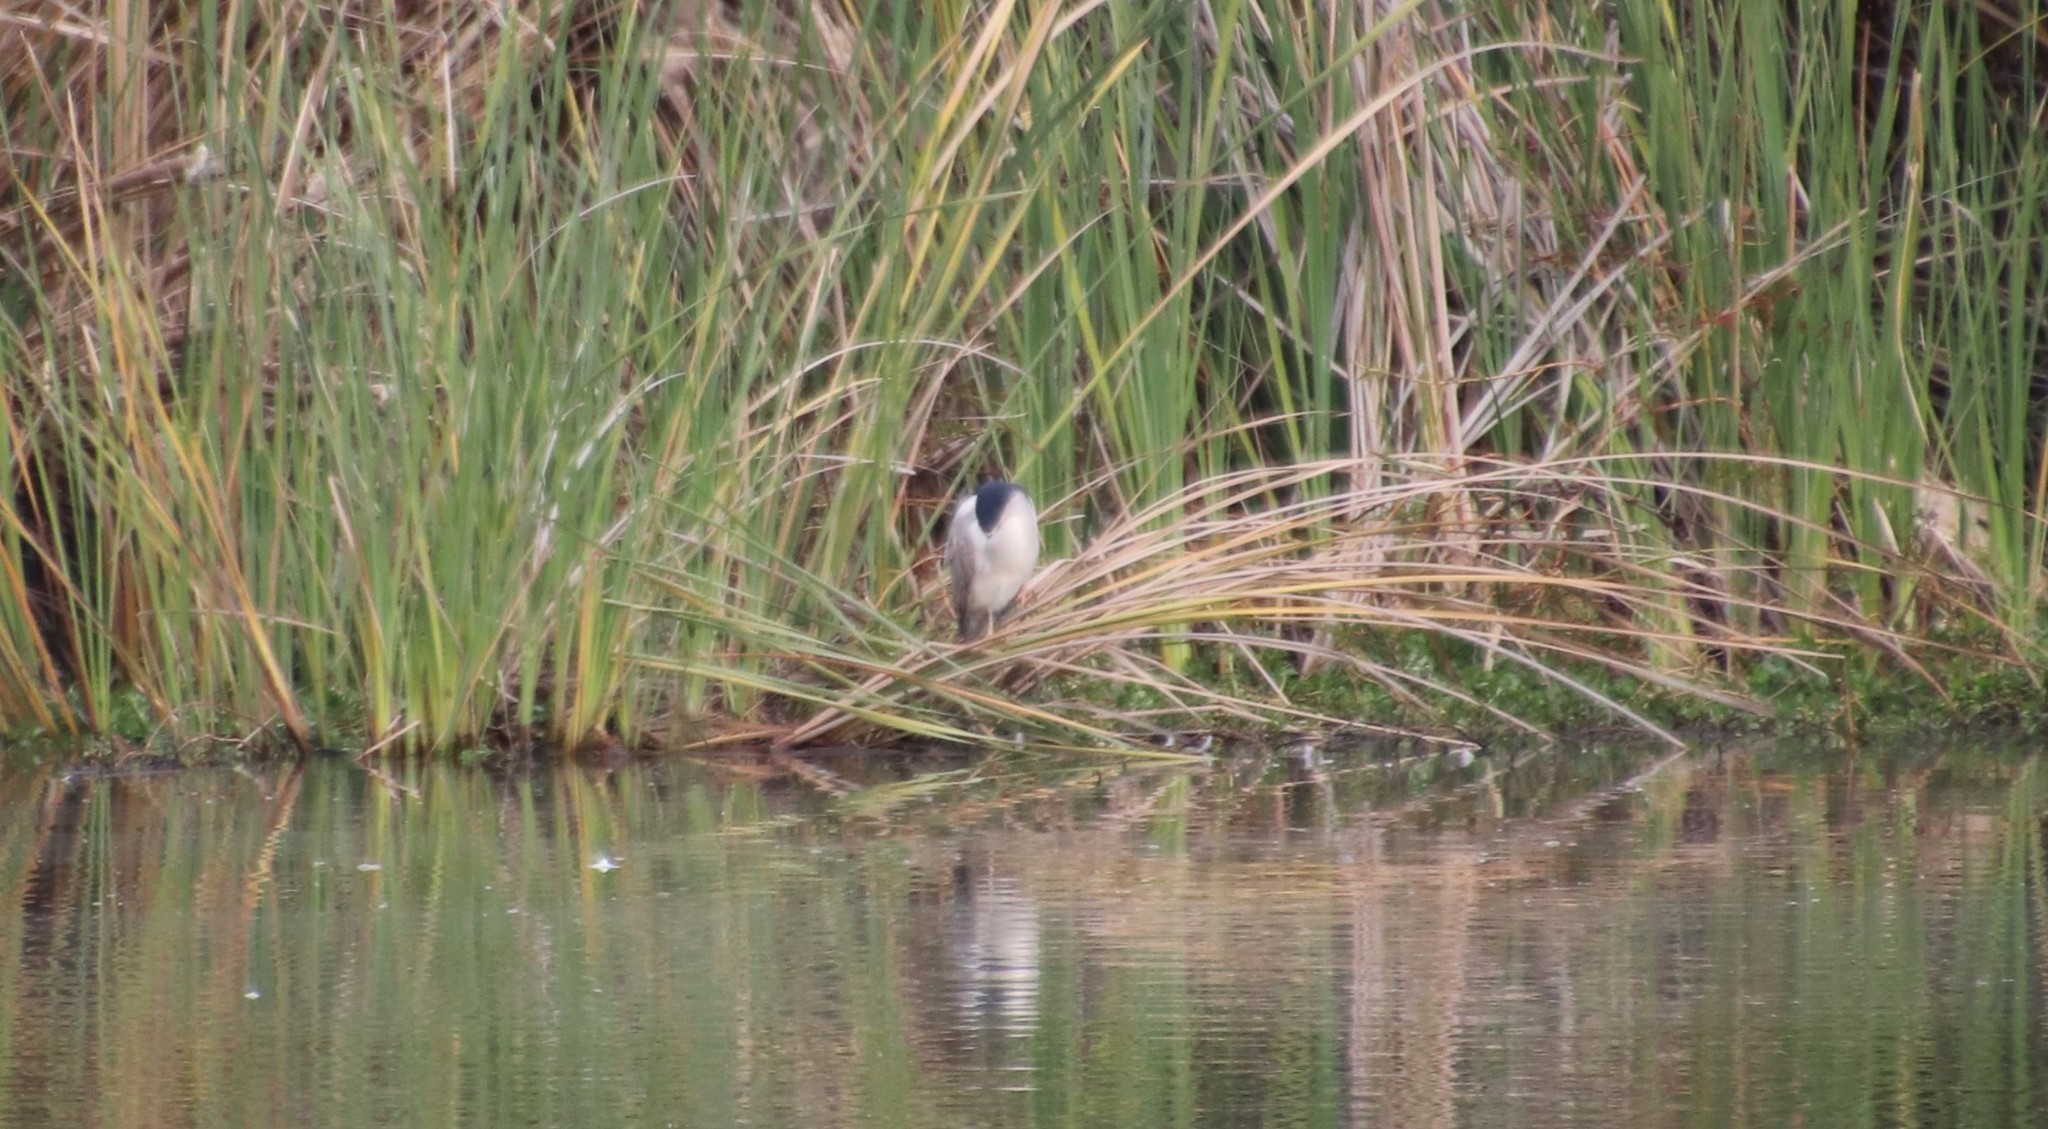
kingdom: Animalia
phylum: Chordata
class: Aves
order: Pelecaniformes
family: Ardeidae
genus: Nycticorax
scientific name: Nycticorax nycticorax
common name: Black-crowned night heron
